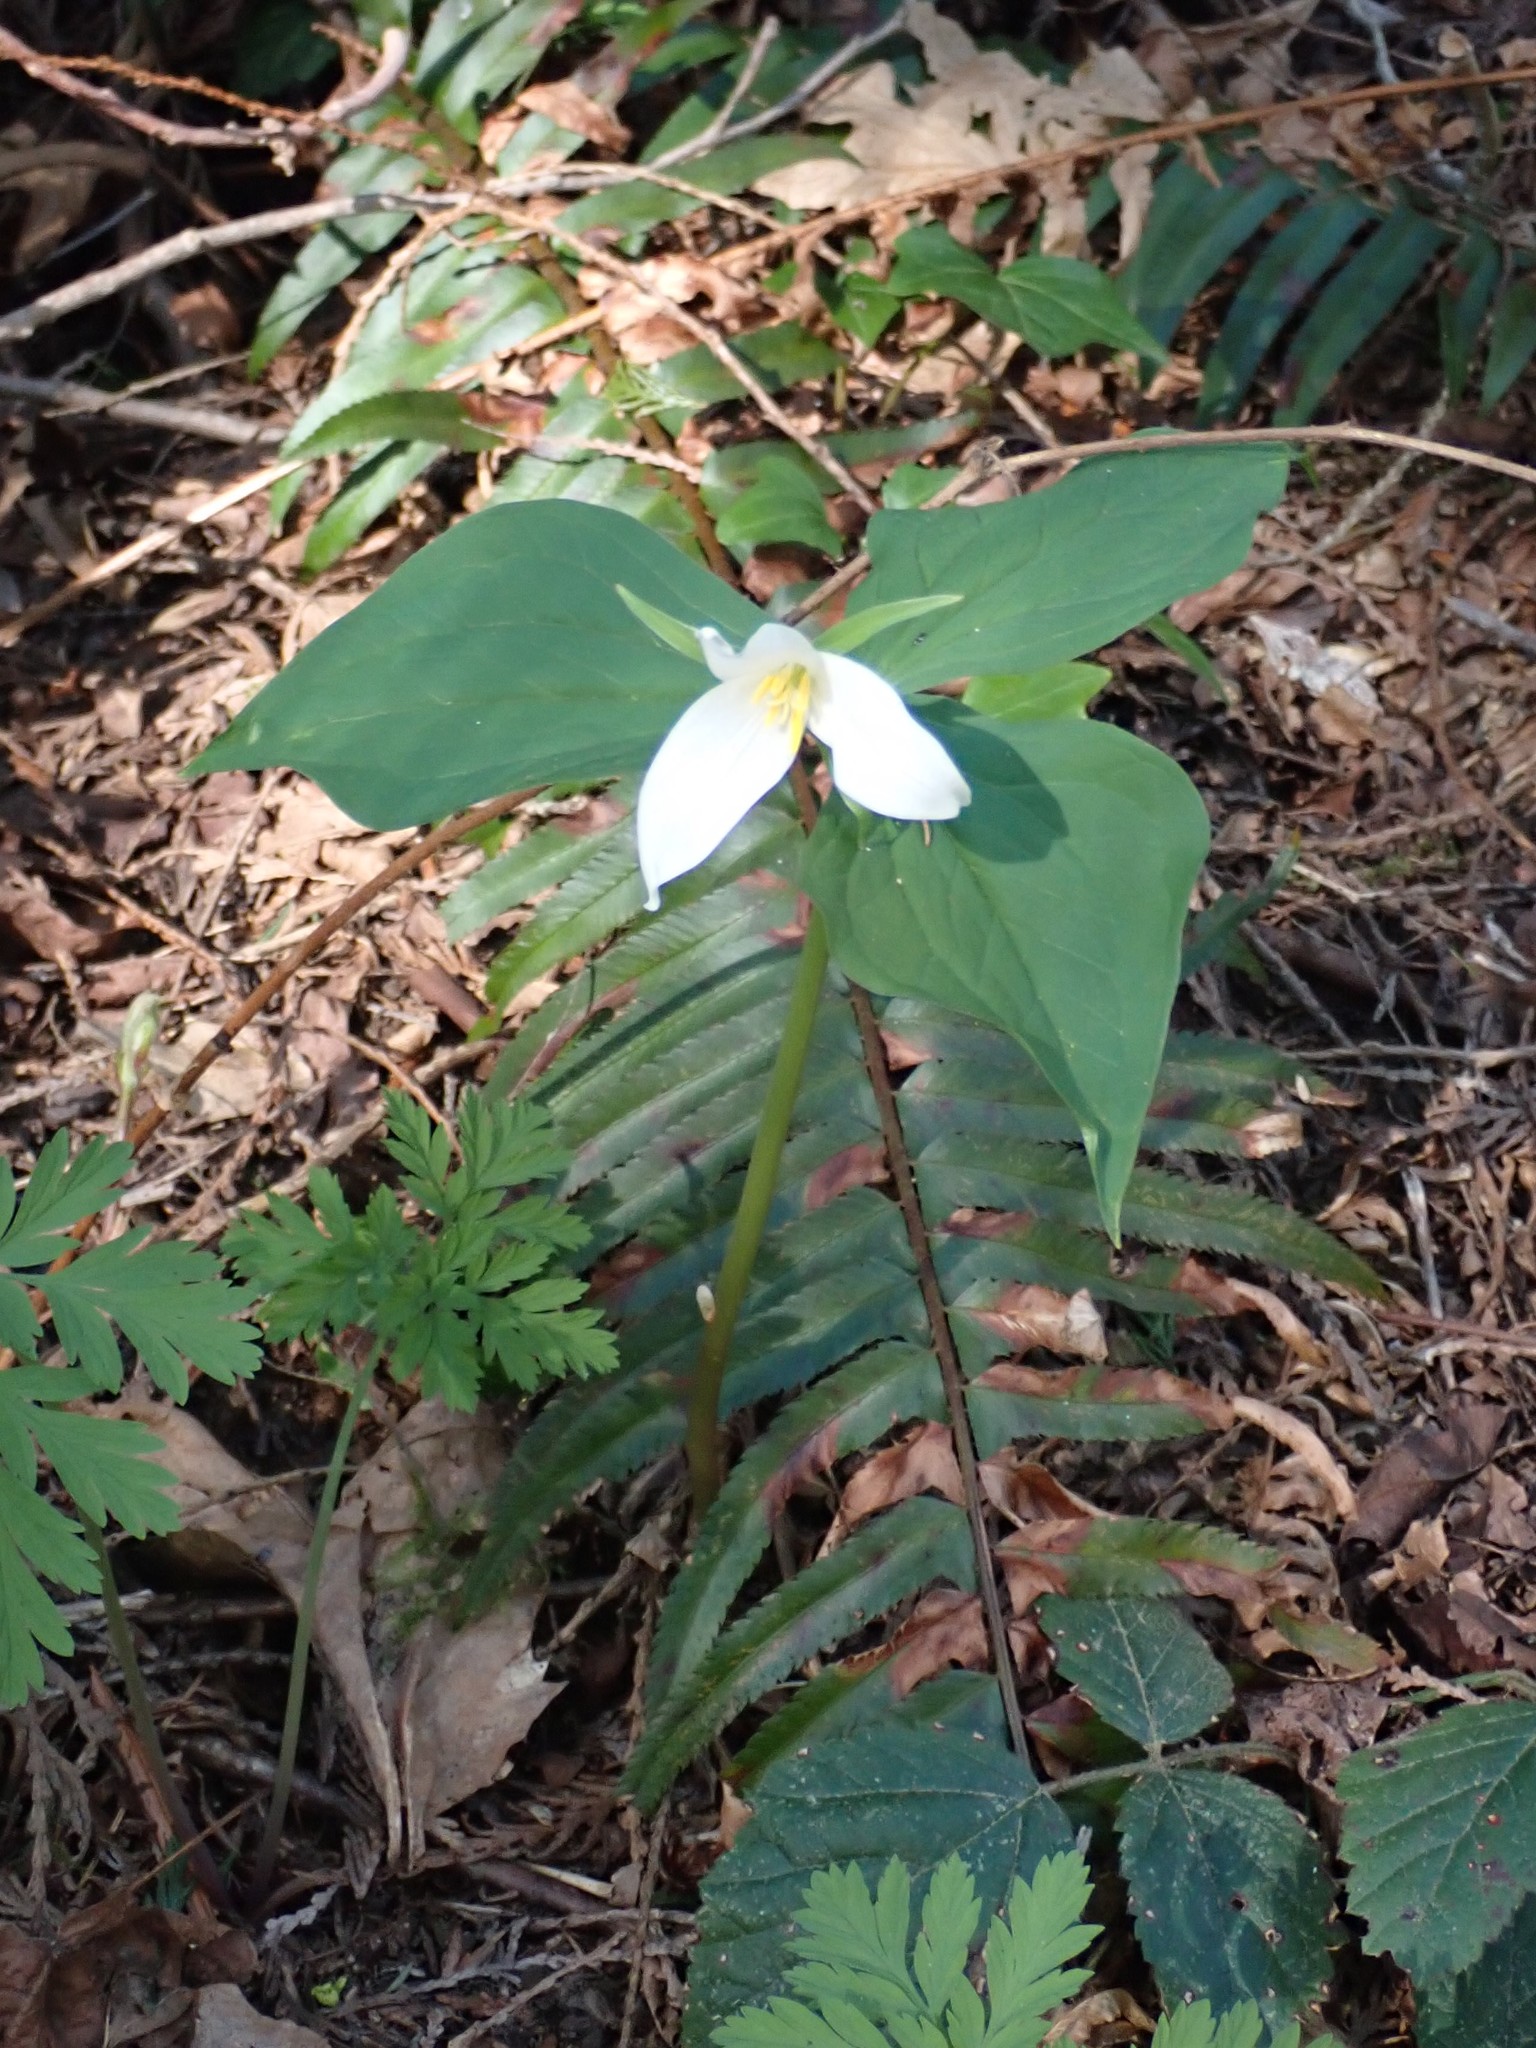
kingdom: Plantae
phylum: Tracheophyta
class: Liliopsida
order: Liliales
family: Melanthiaceae
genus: Trillium
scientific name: Trillium ovatum
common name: Pacific trillium
